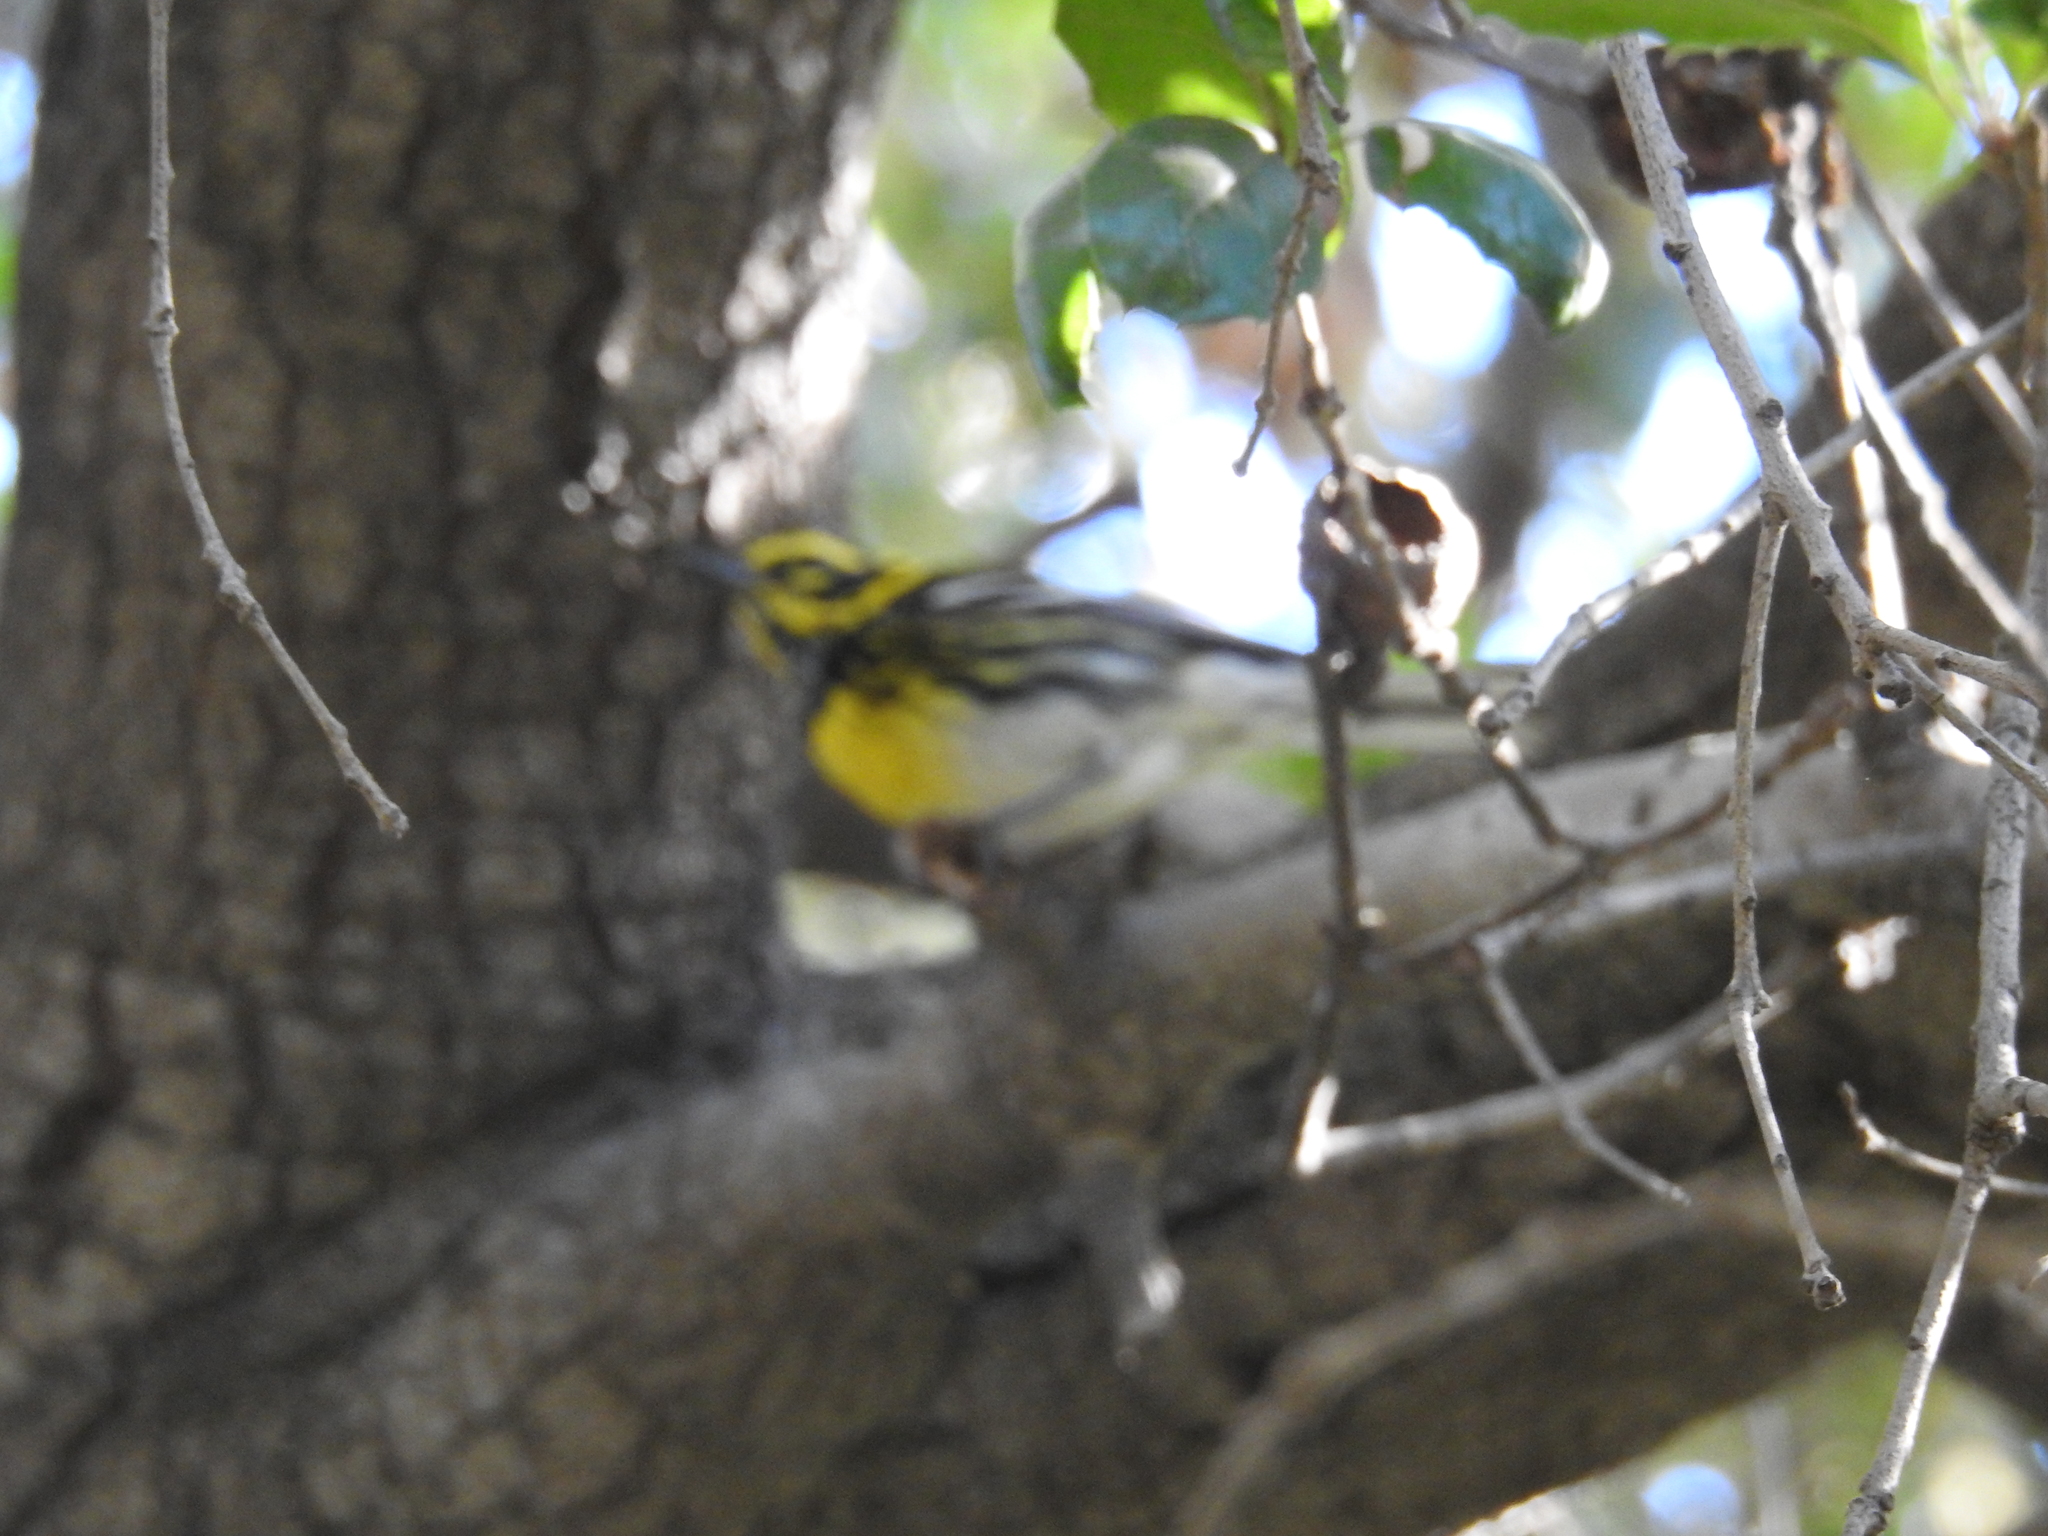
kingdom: Animalia
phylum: Chordata
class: Aves
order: Passeriformes
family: Parulidae
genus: Setophaga
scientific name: Setophaga townsendi
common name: Townsend's warbler
